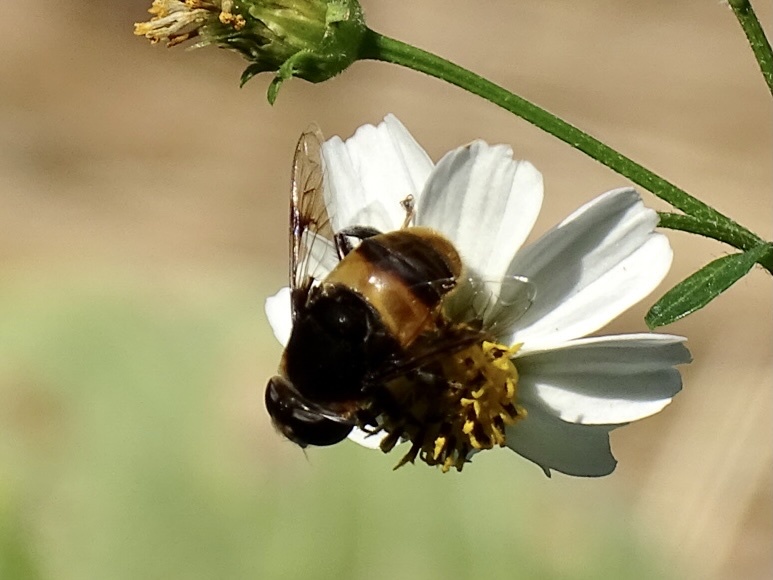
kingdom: Animalia
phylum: Arthropoda
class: Insecta
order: Diptera
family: Syrphidae
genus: Phytomia
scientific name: Phytomia zonata
